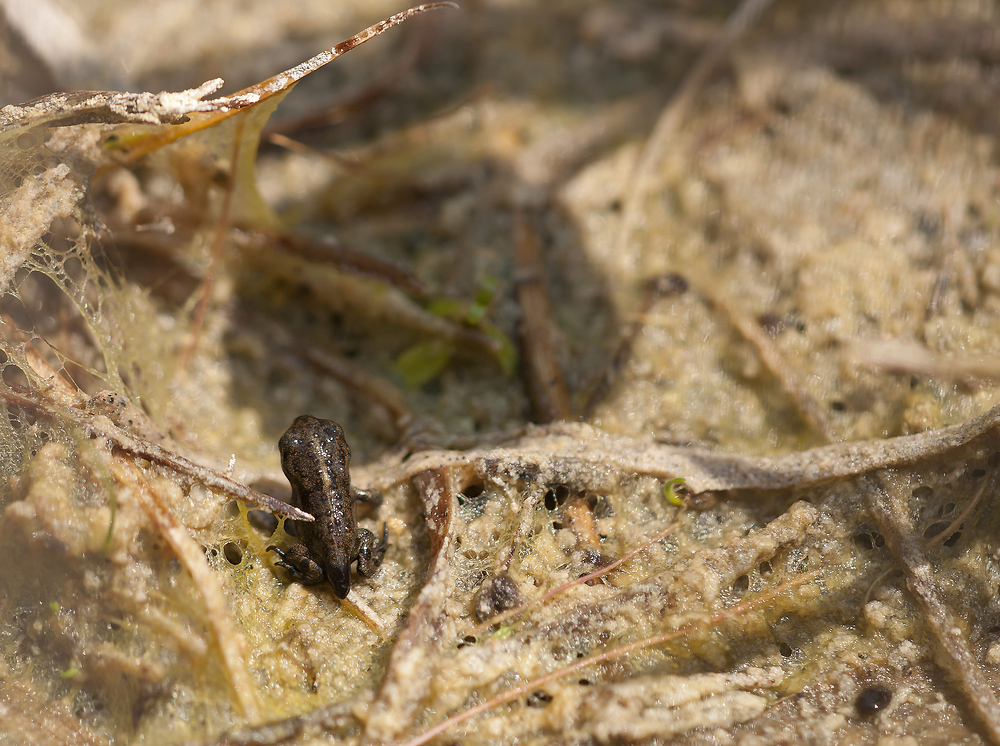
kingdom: Animalia
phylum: Chordata
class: Amphibia
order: Anura
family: Bufonidae
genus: Epidalea
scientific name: Epidalea calamita
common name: Natterjack toad
